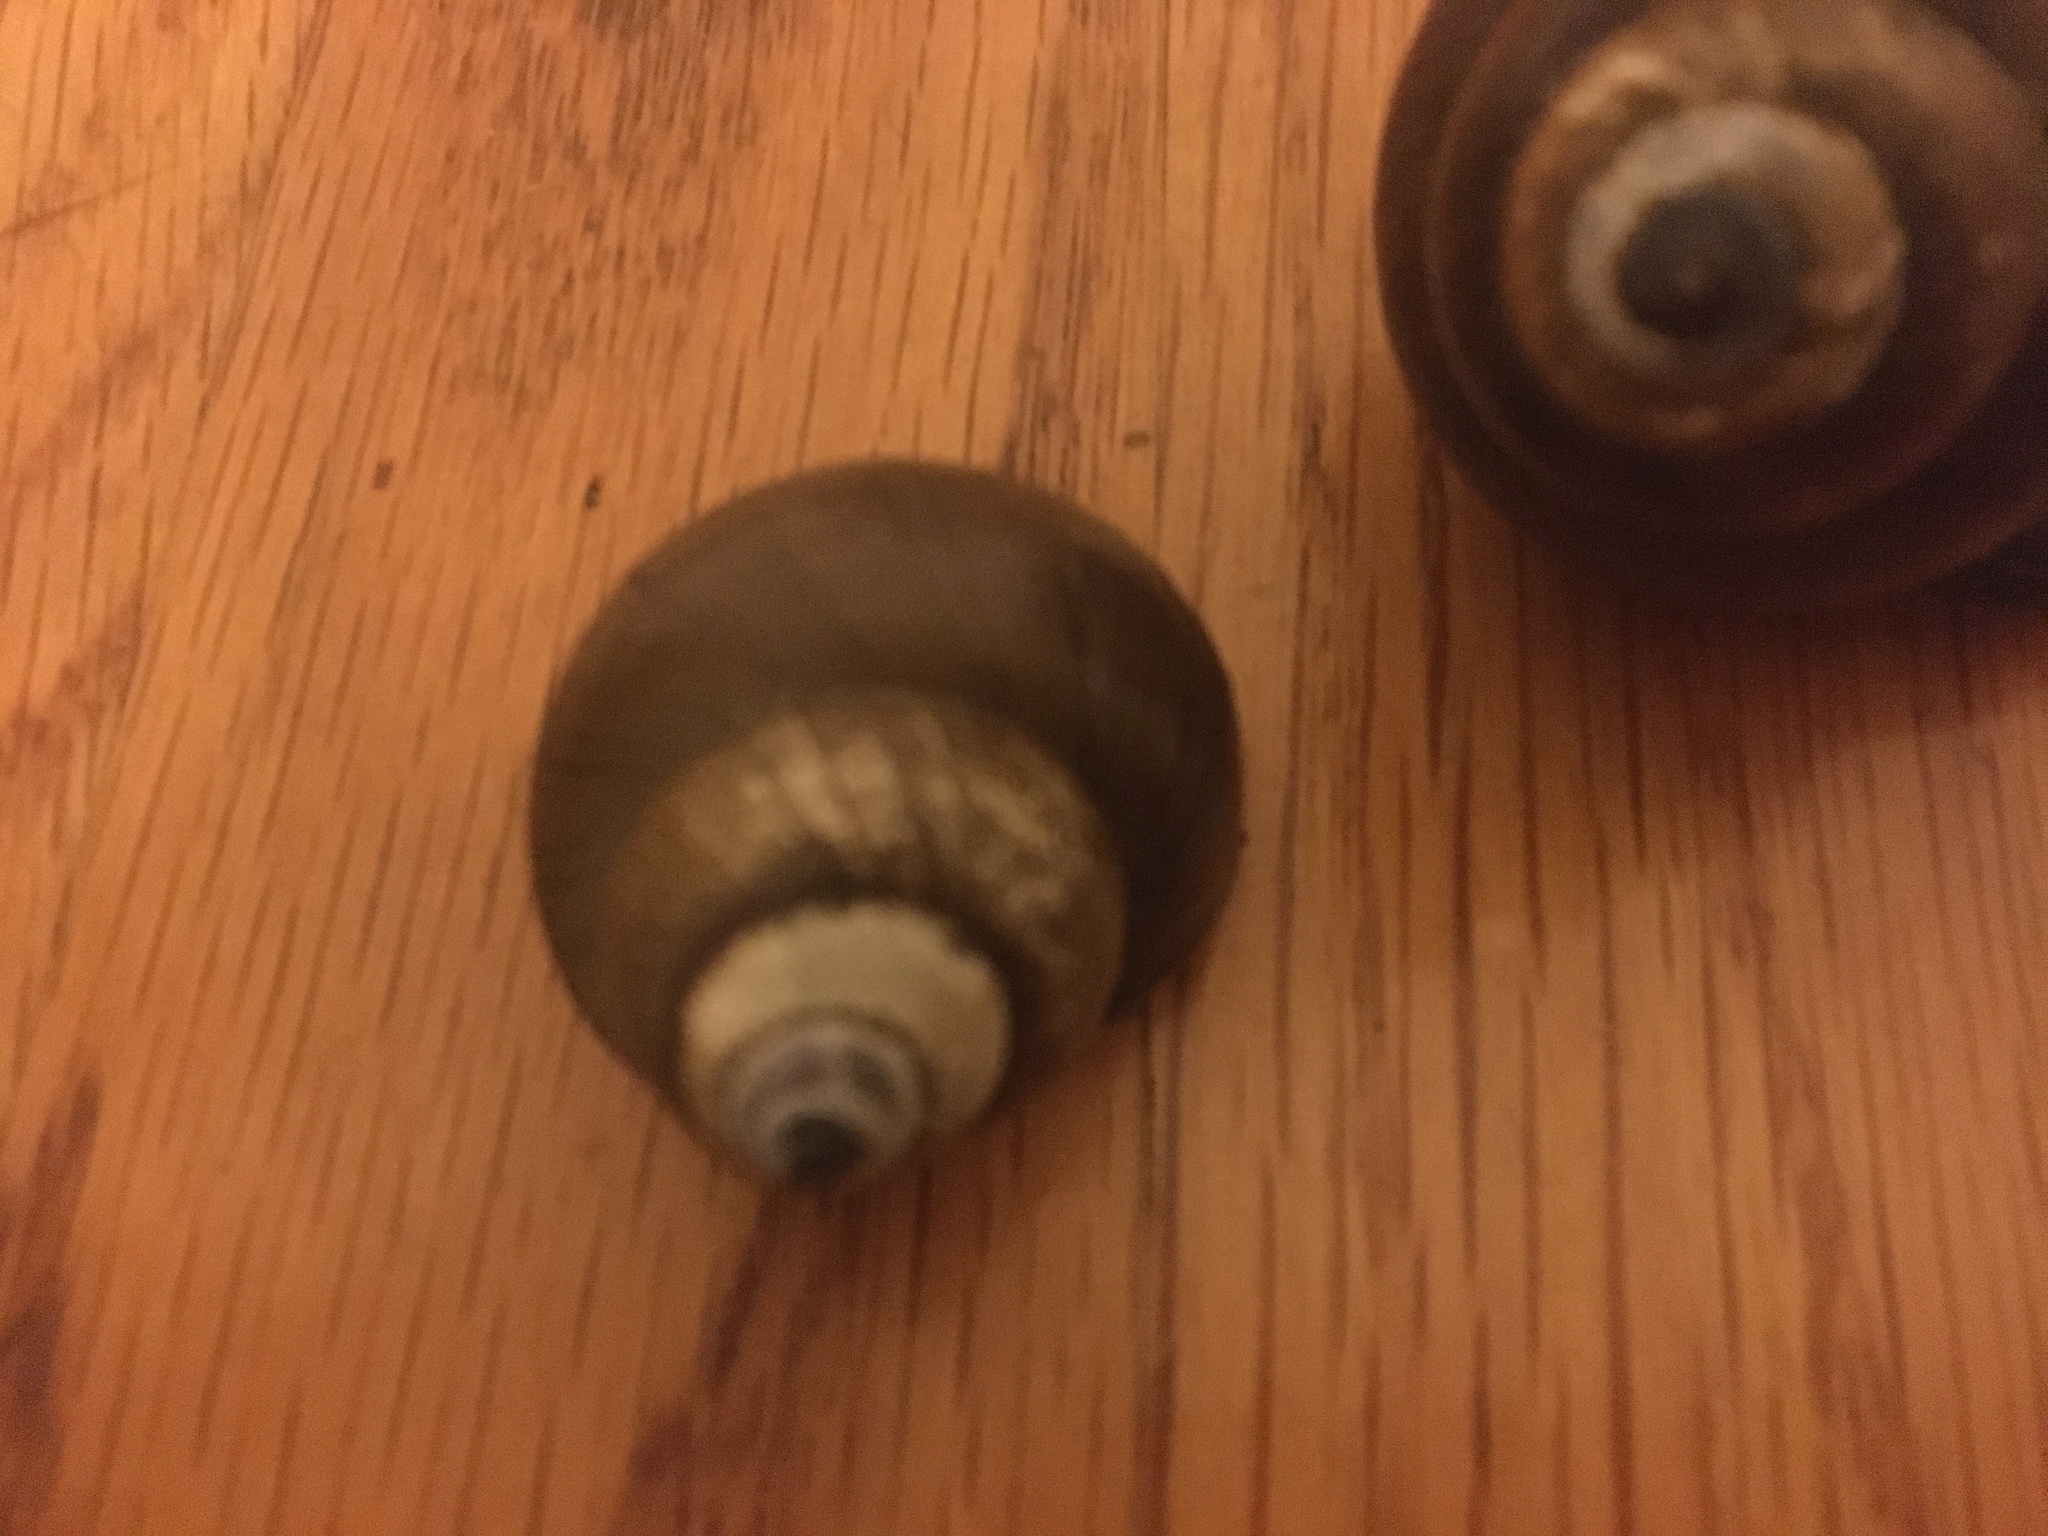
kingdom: Animalia
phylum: Mollusca
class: Gastropoda
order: Architaenioglossa
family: Viviparidae
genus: Cipangopaludina
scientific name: Cipangopaludina chinensis
